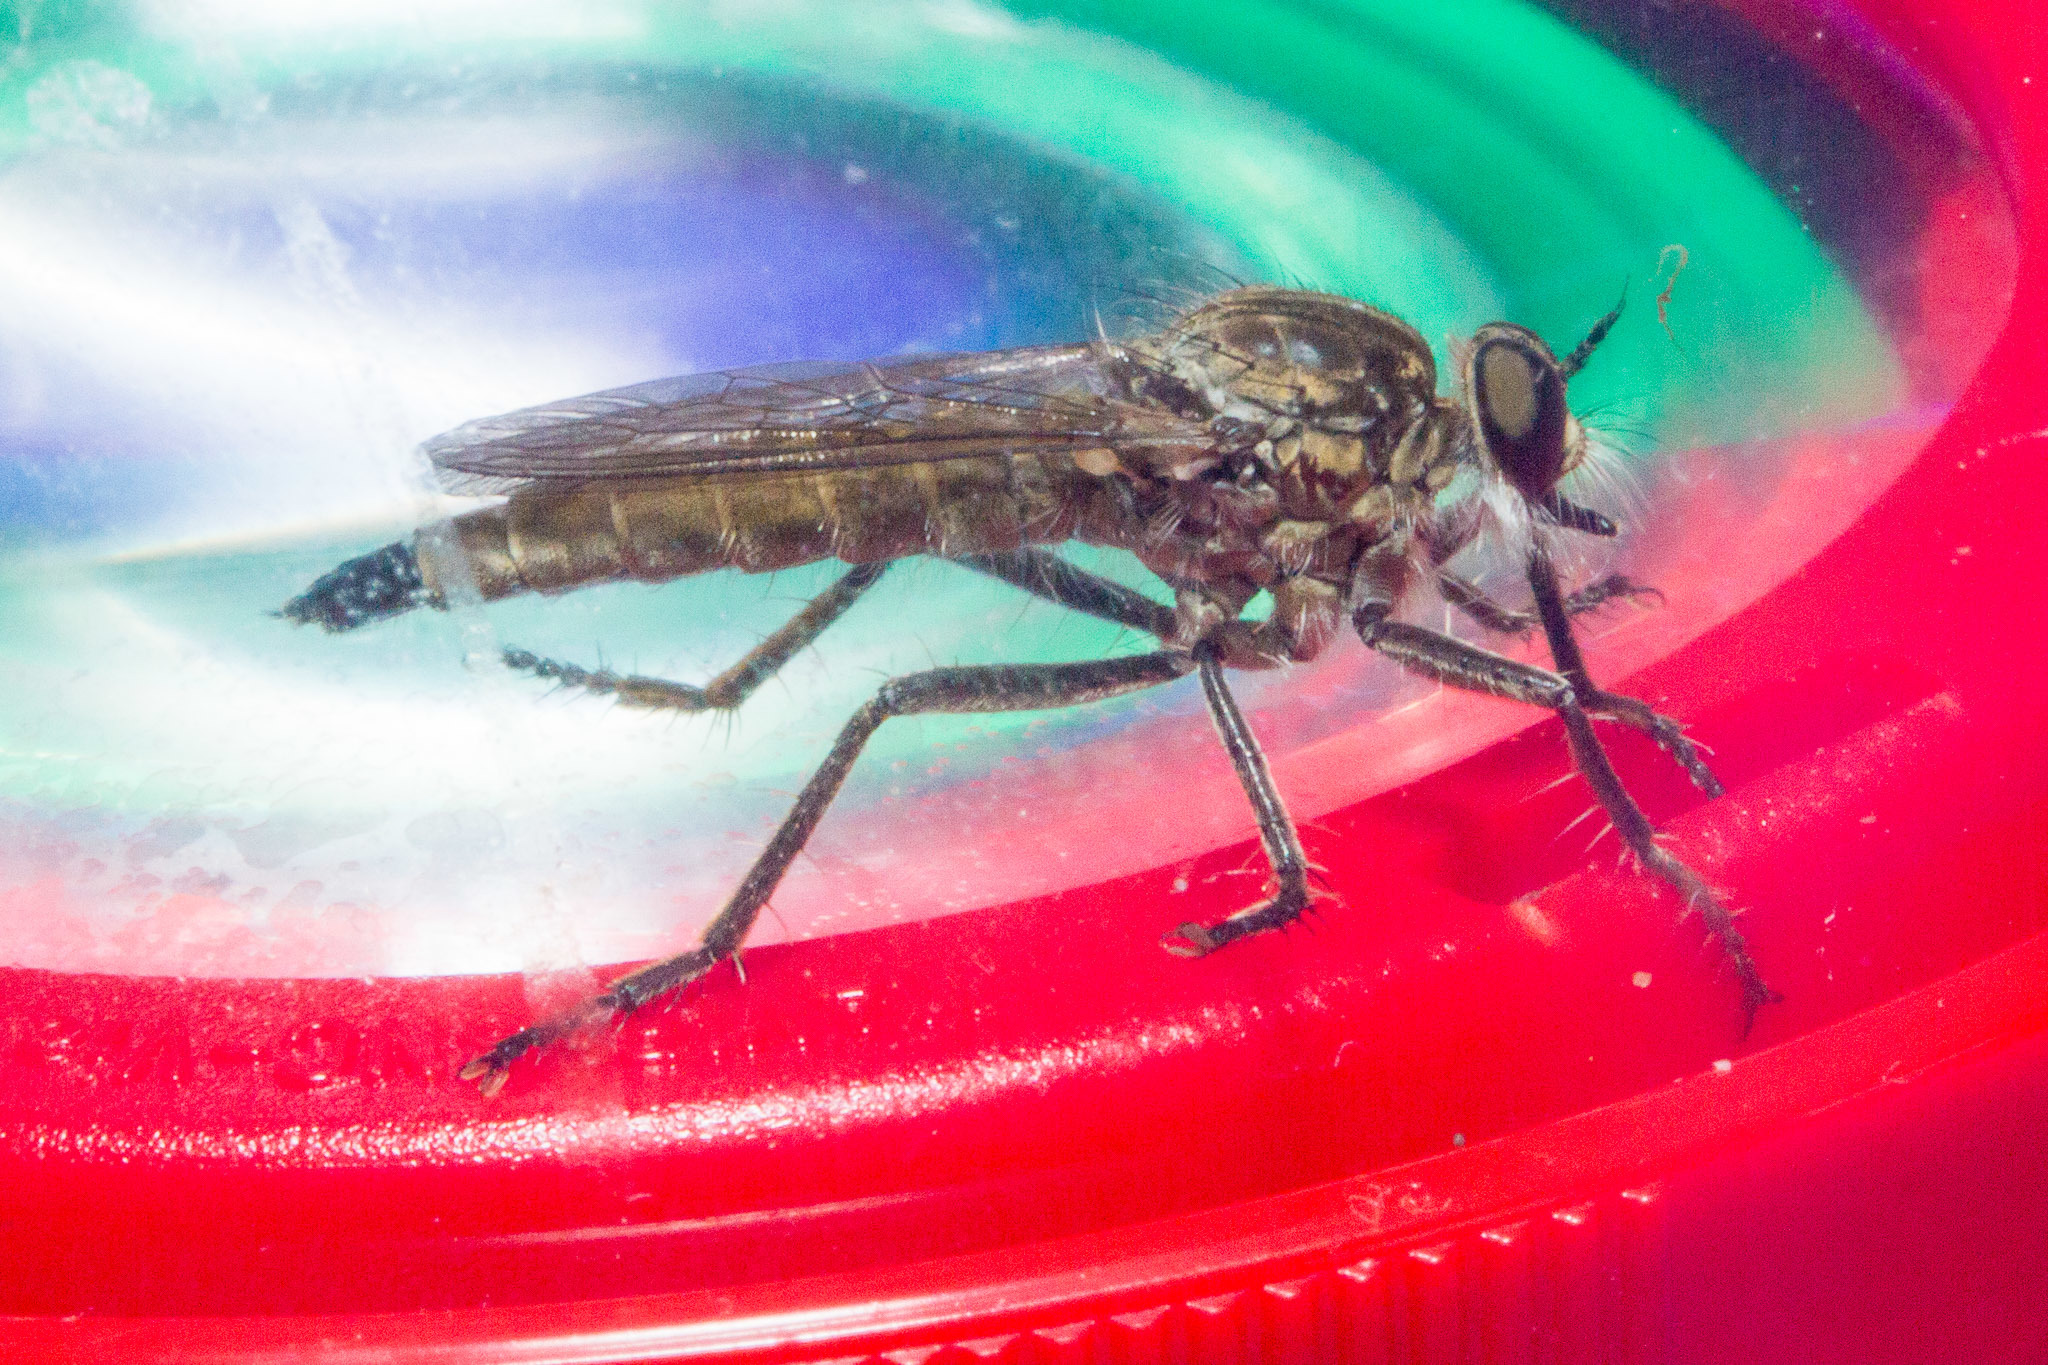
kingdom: Animalia
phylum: Arthropoda
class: Insecta
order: Diptera
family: Asilidae
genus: Philonicus
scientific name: Philonicus albiceps
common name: Dune robberfly
